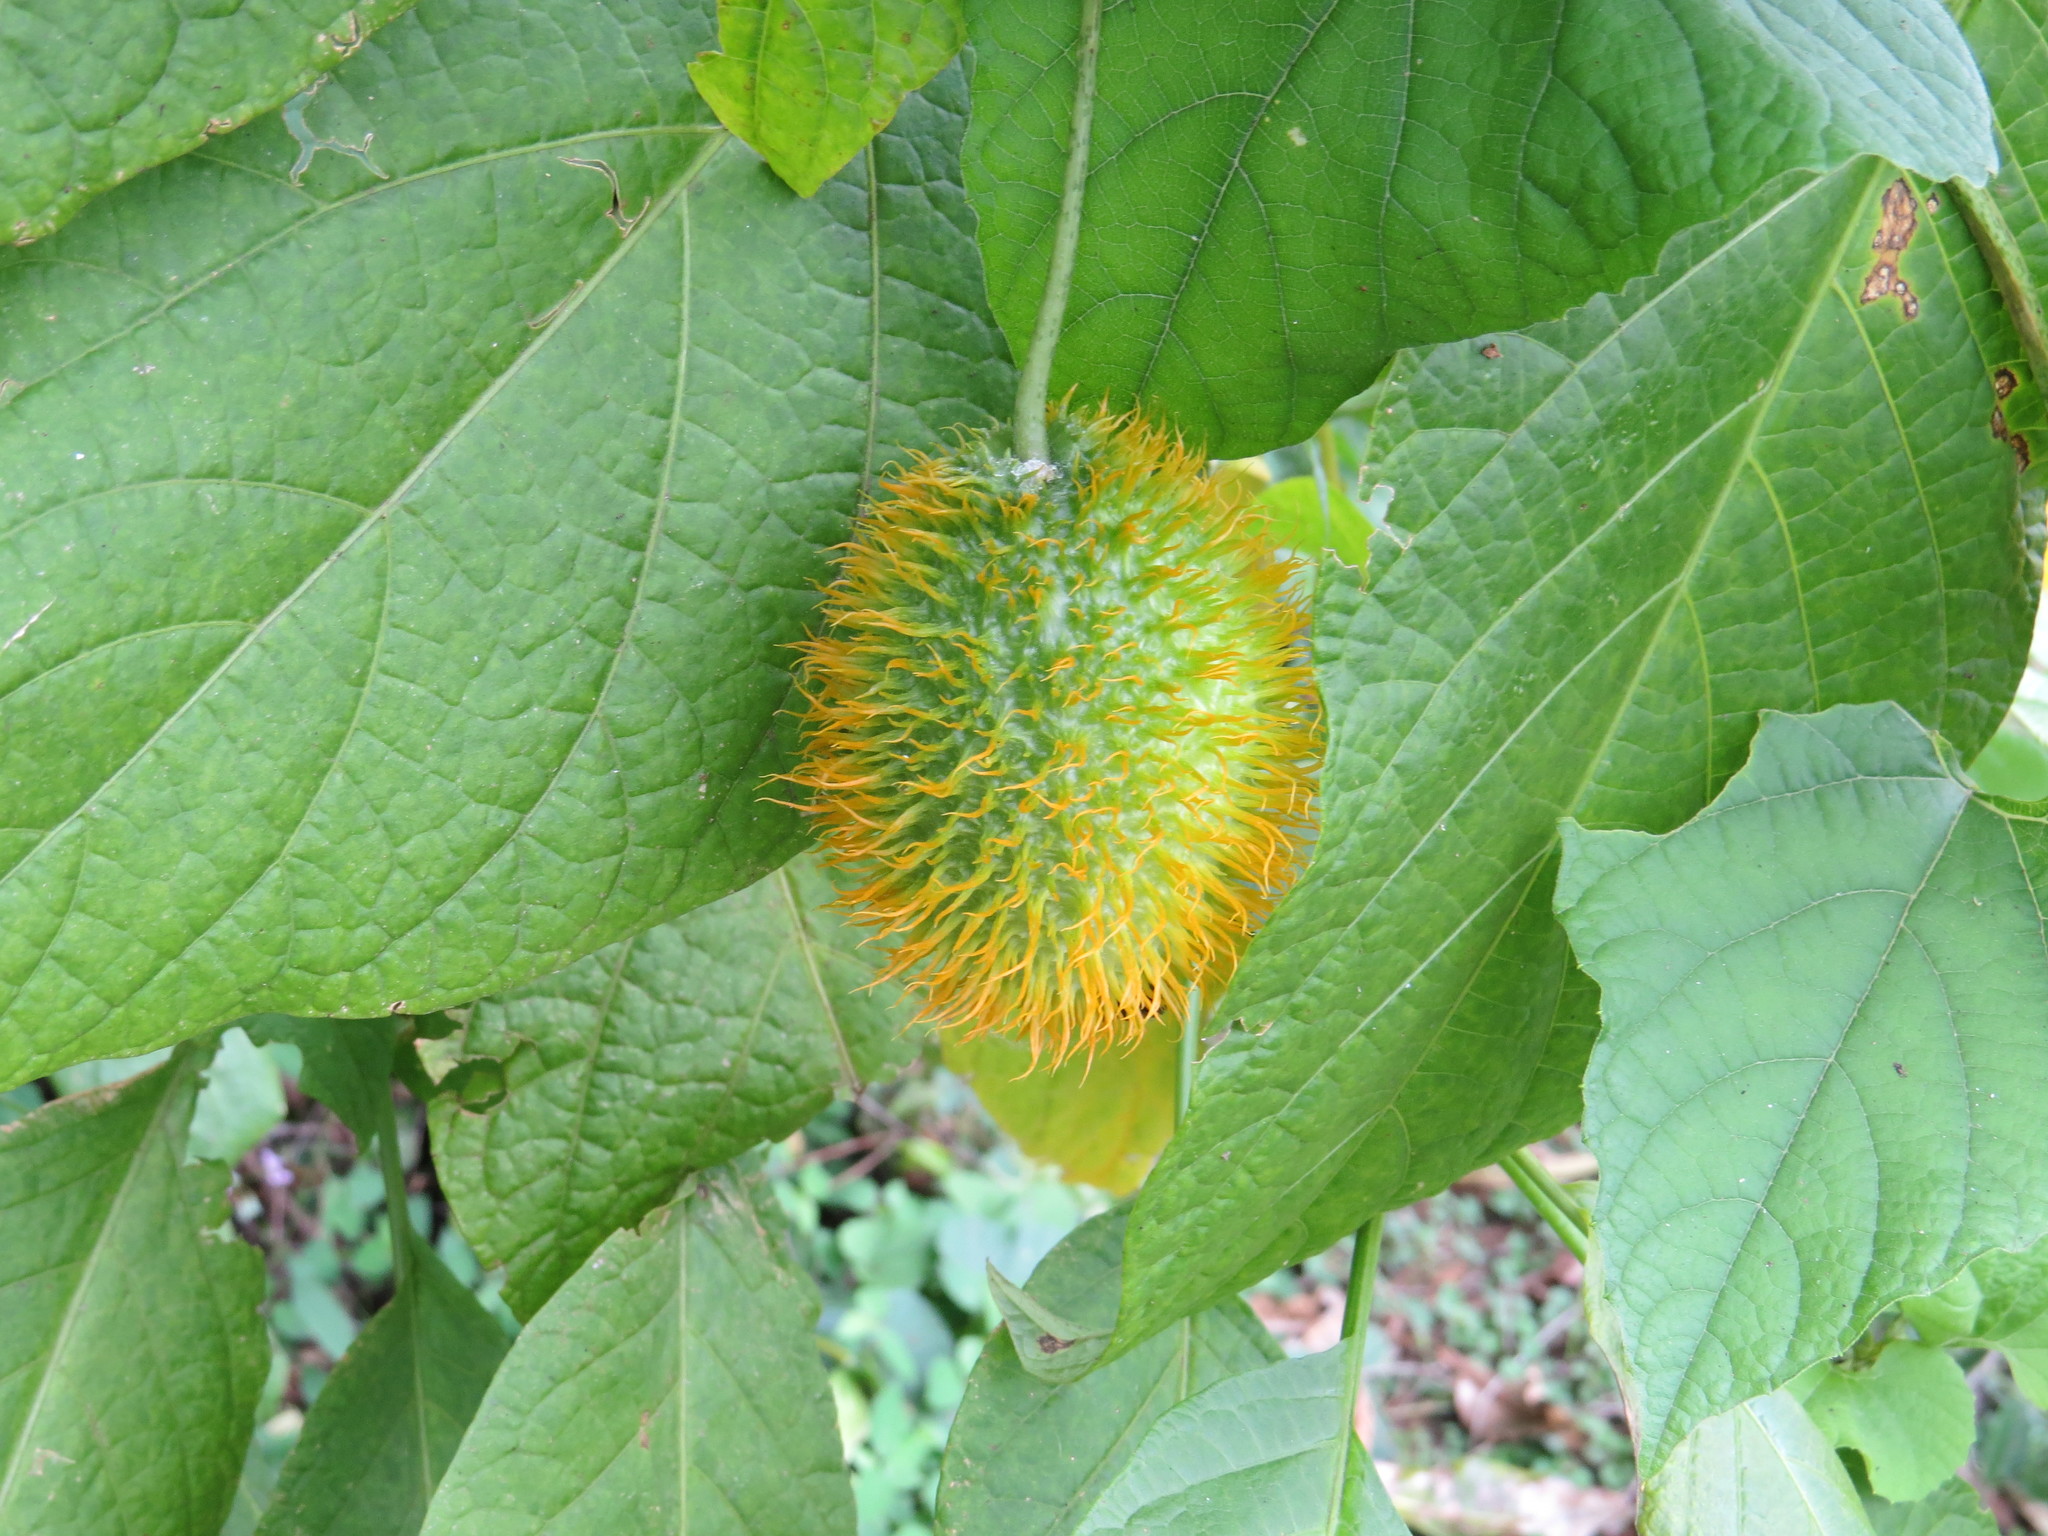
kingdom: Plantae
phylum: Tracheophyta
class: Magnoliopsida
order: Cucurbitales
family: Cucurbitaceae
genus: Momordica
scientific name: Momordica foetida
